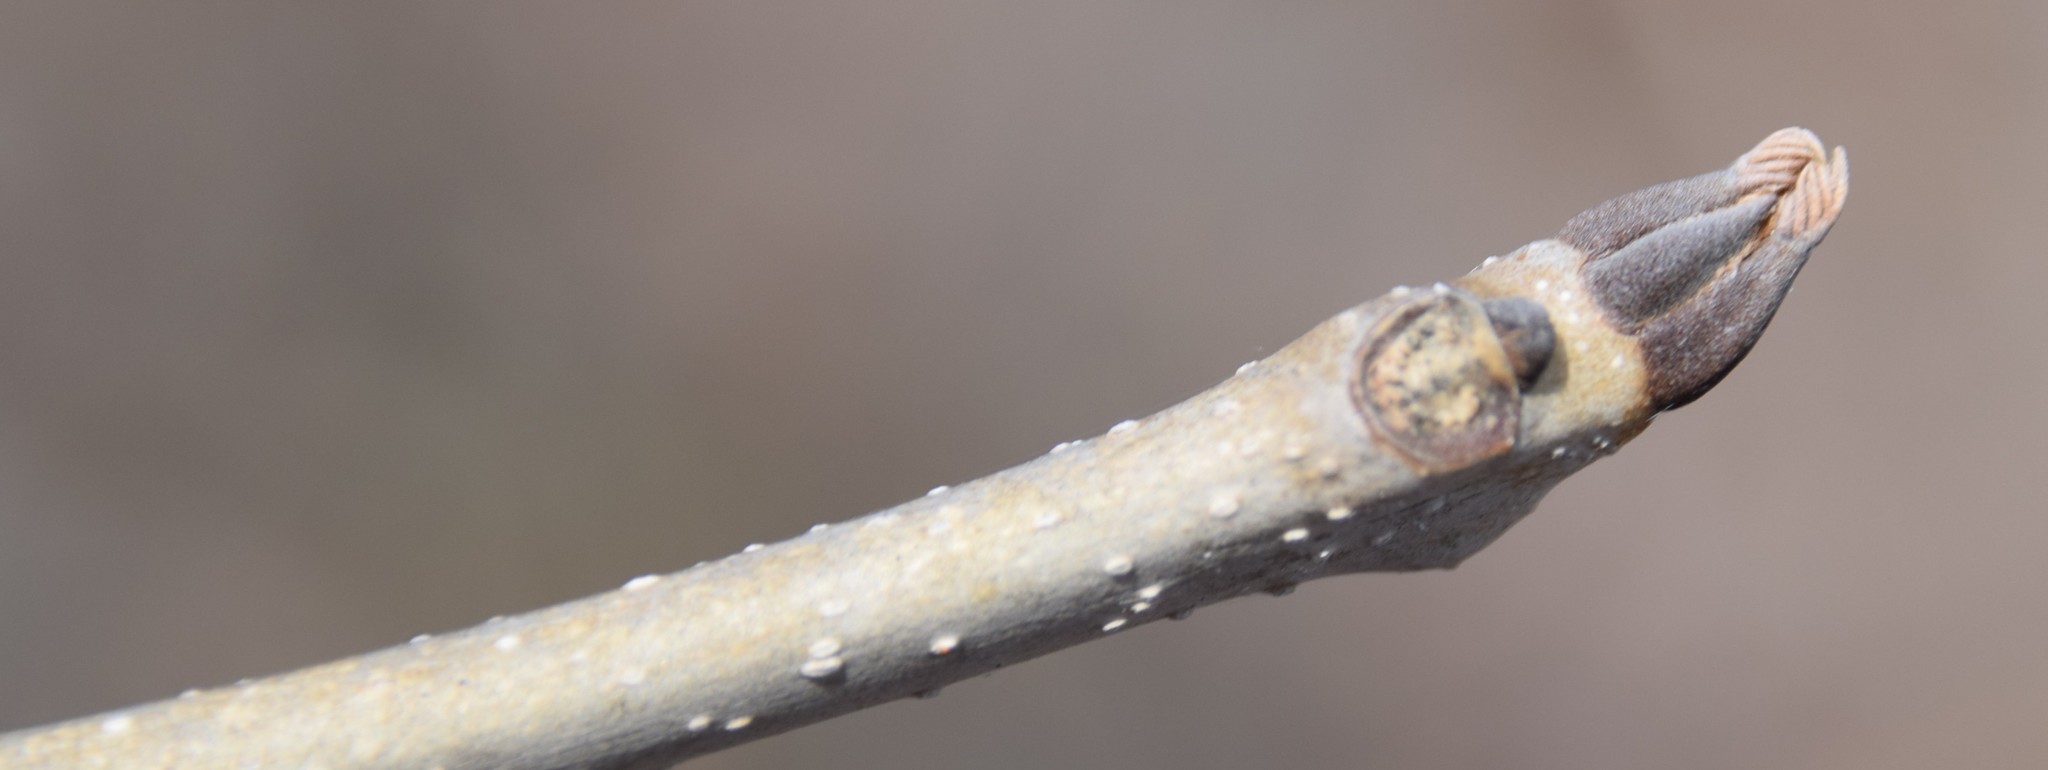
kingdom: Plantae
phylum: Tracheophyta
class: Magnoliopsida
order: Lamiales
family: Oleaceae
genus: Fraxinus
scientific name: Fraxinus nigra
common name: Black ash
